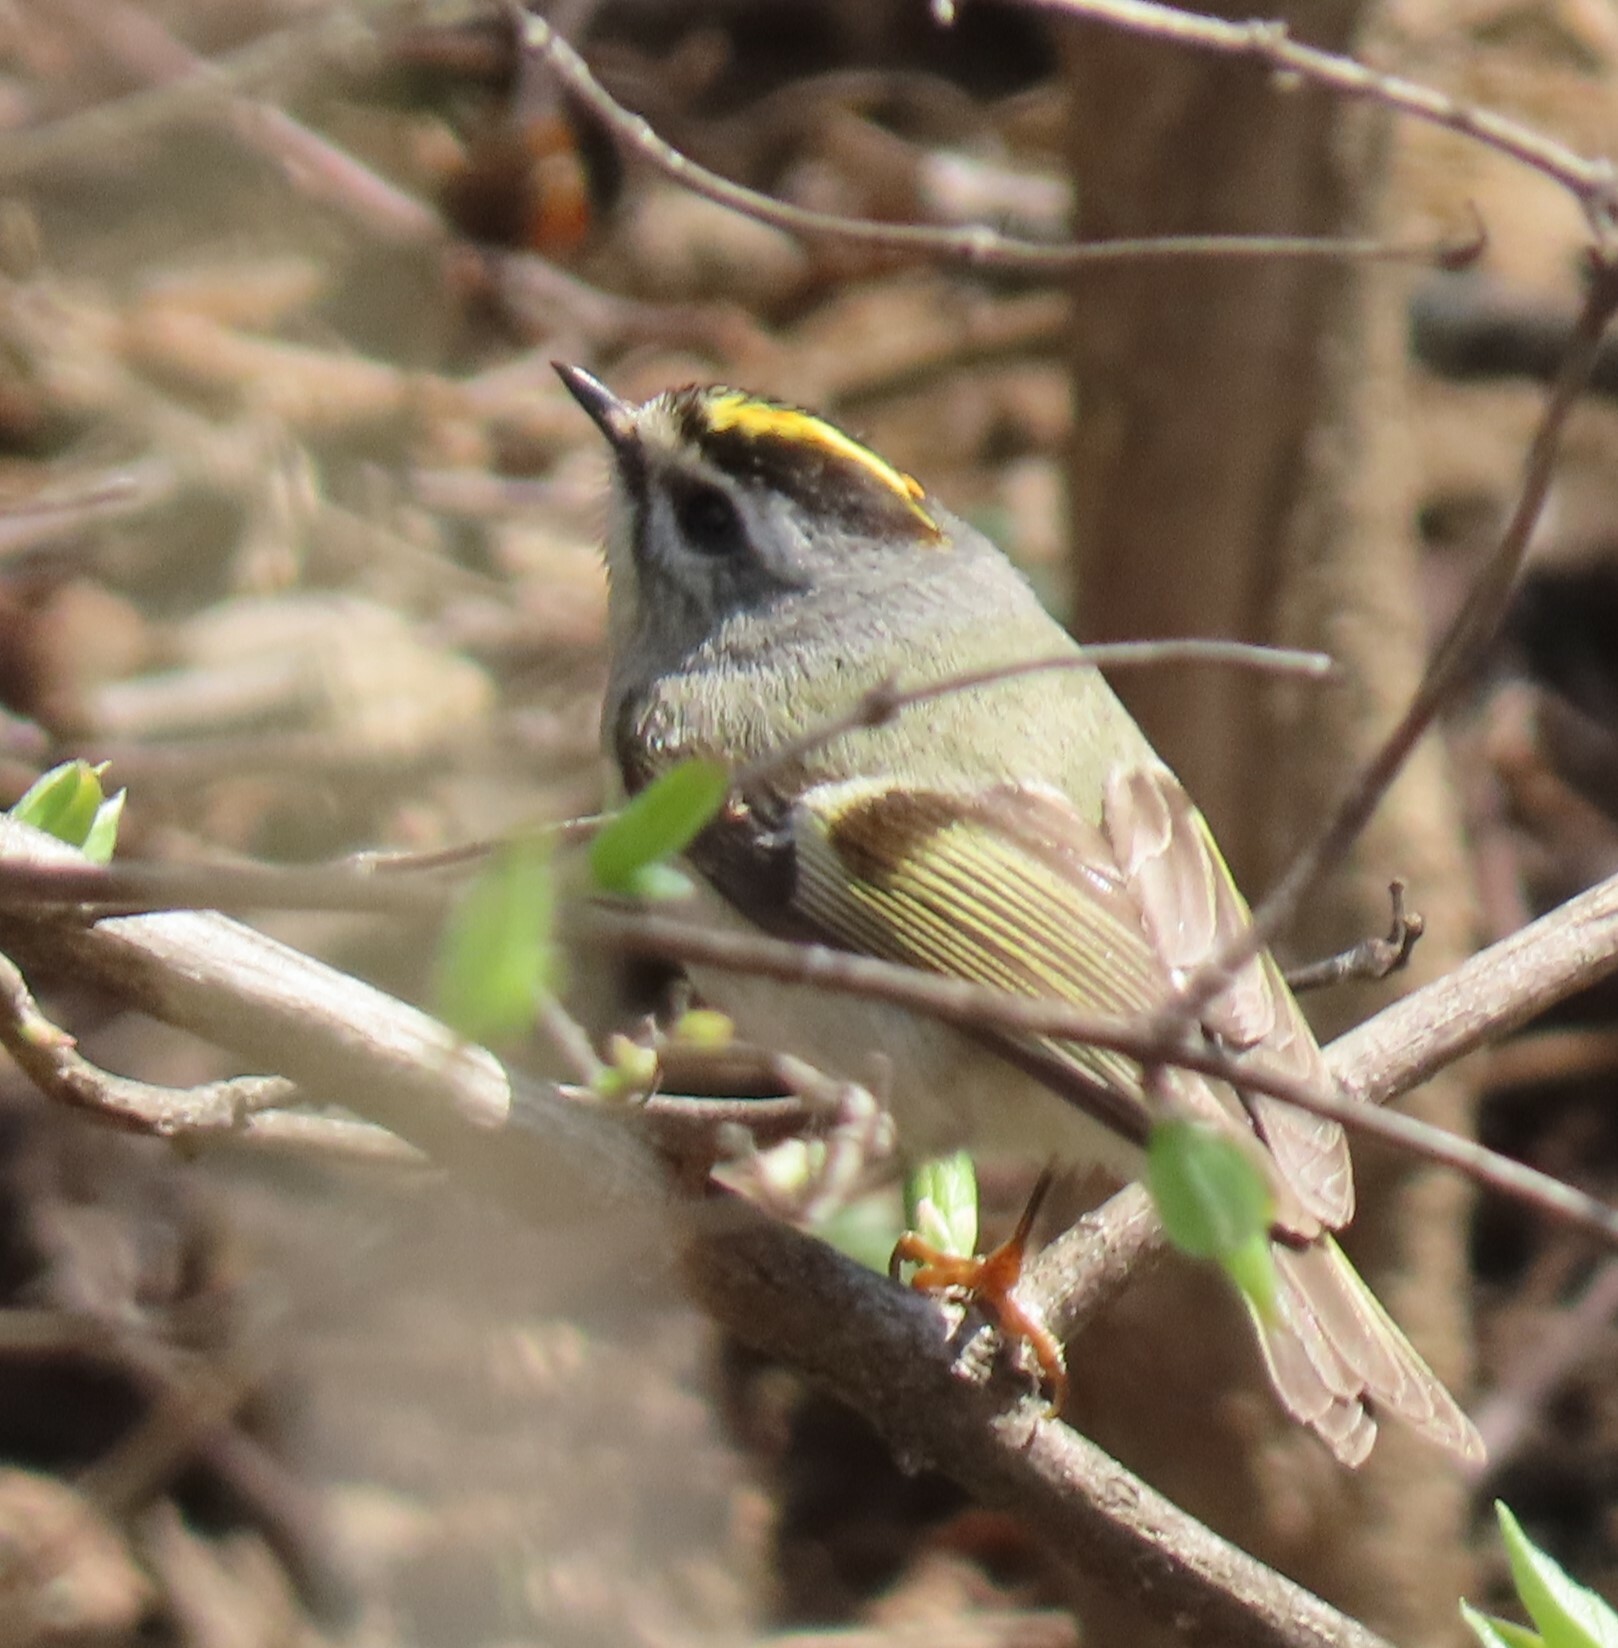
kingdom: Animalia
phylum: Chordata
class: Aves
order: Passeriformes
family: Regulidae
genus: Regulus
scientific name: Regulus satrapa
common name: Golden-crowned kinglet
